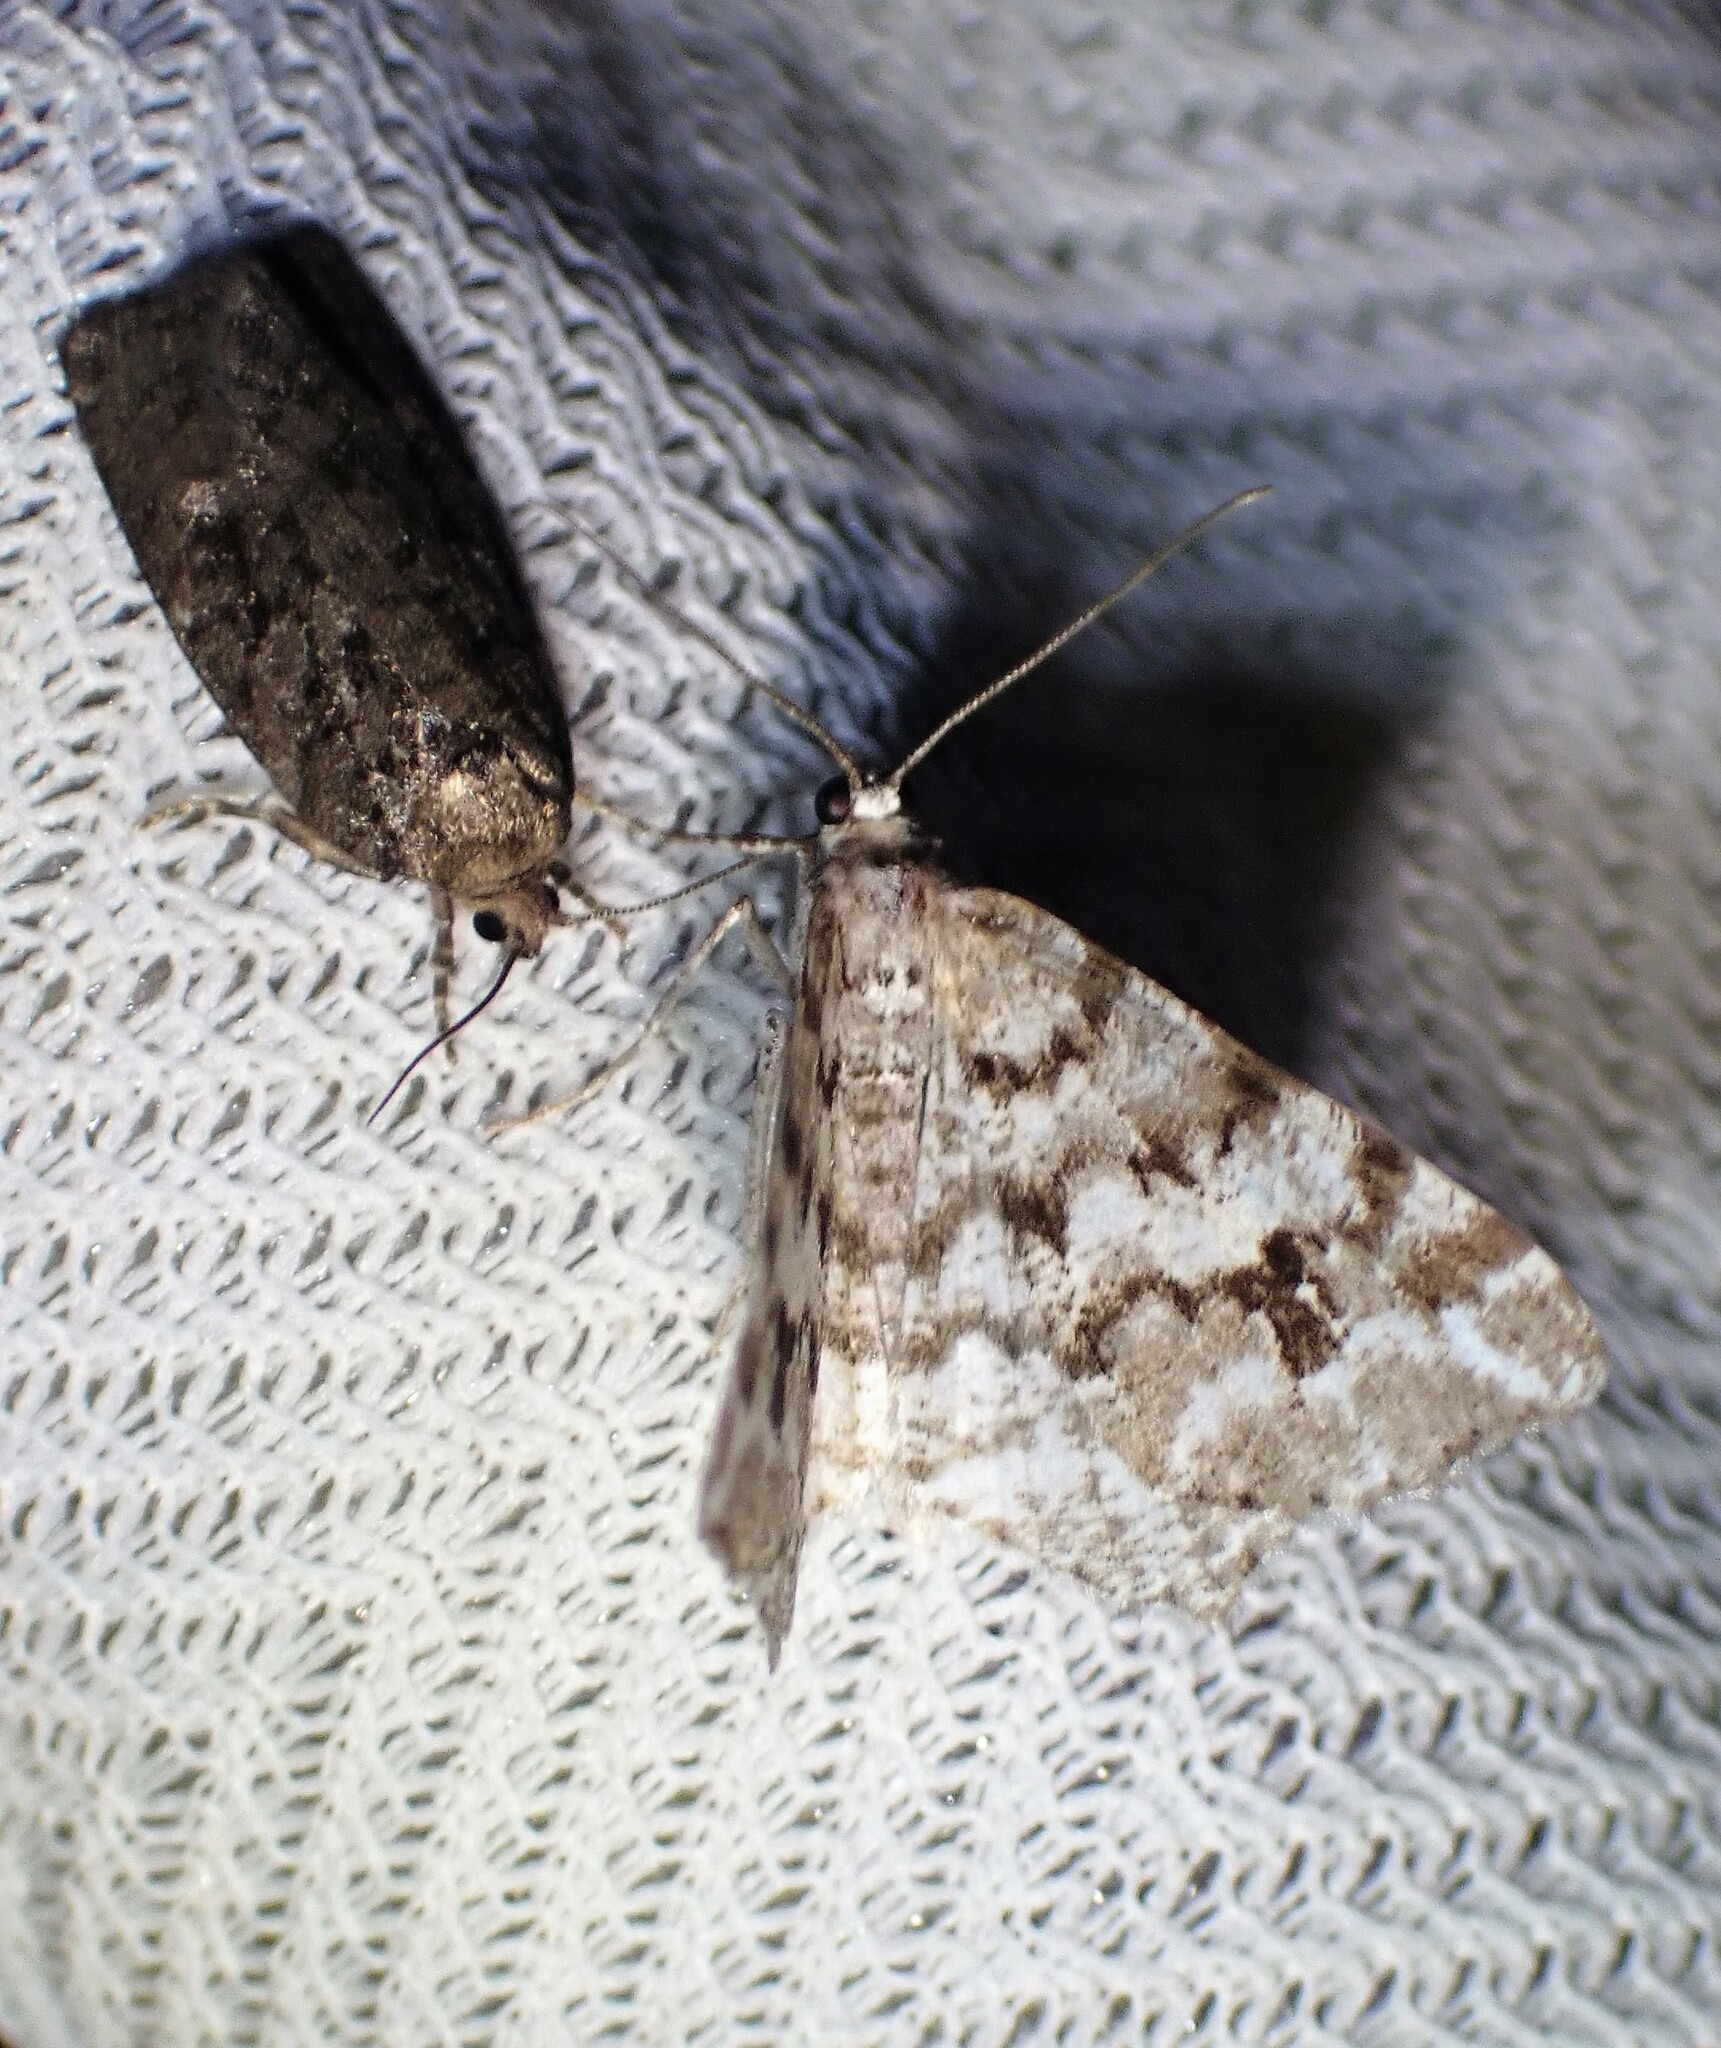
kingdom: Animalia
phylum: Arthropoda
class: Insecta
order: Lepidoptera
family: Geometridae
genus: Macaria
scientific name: Macaria oweni
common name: Owen's angle
